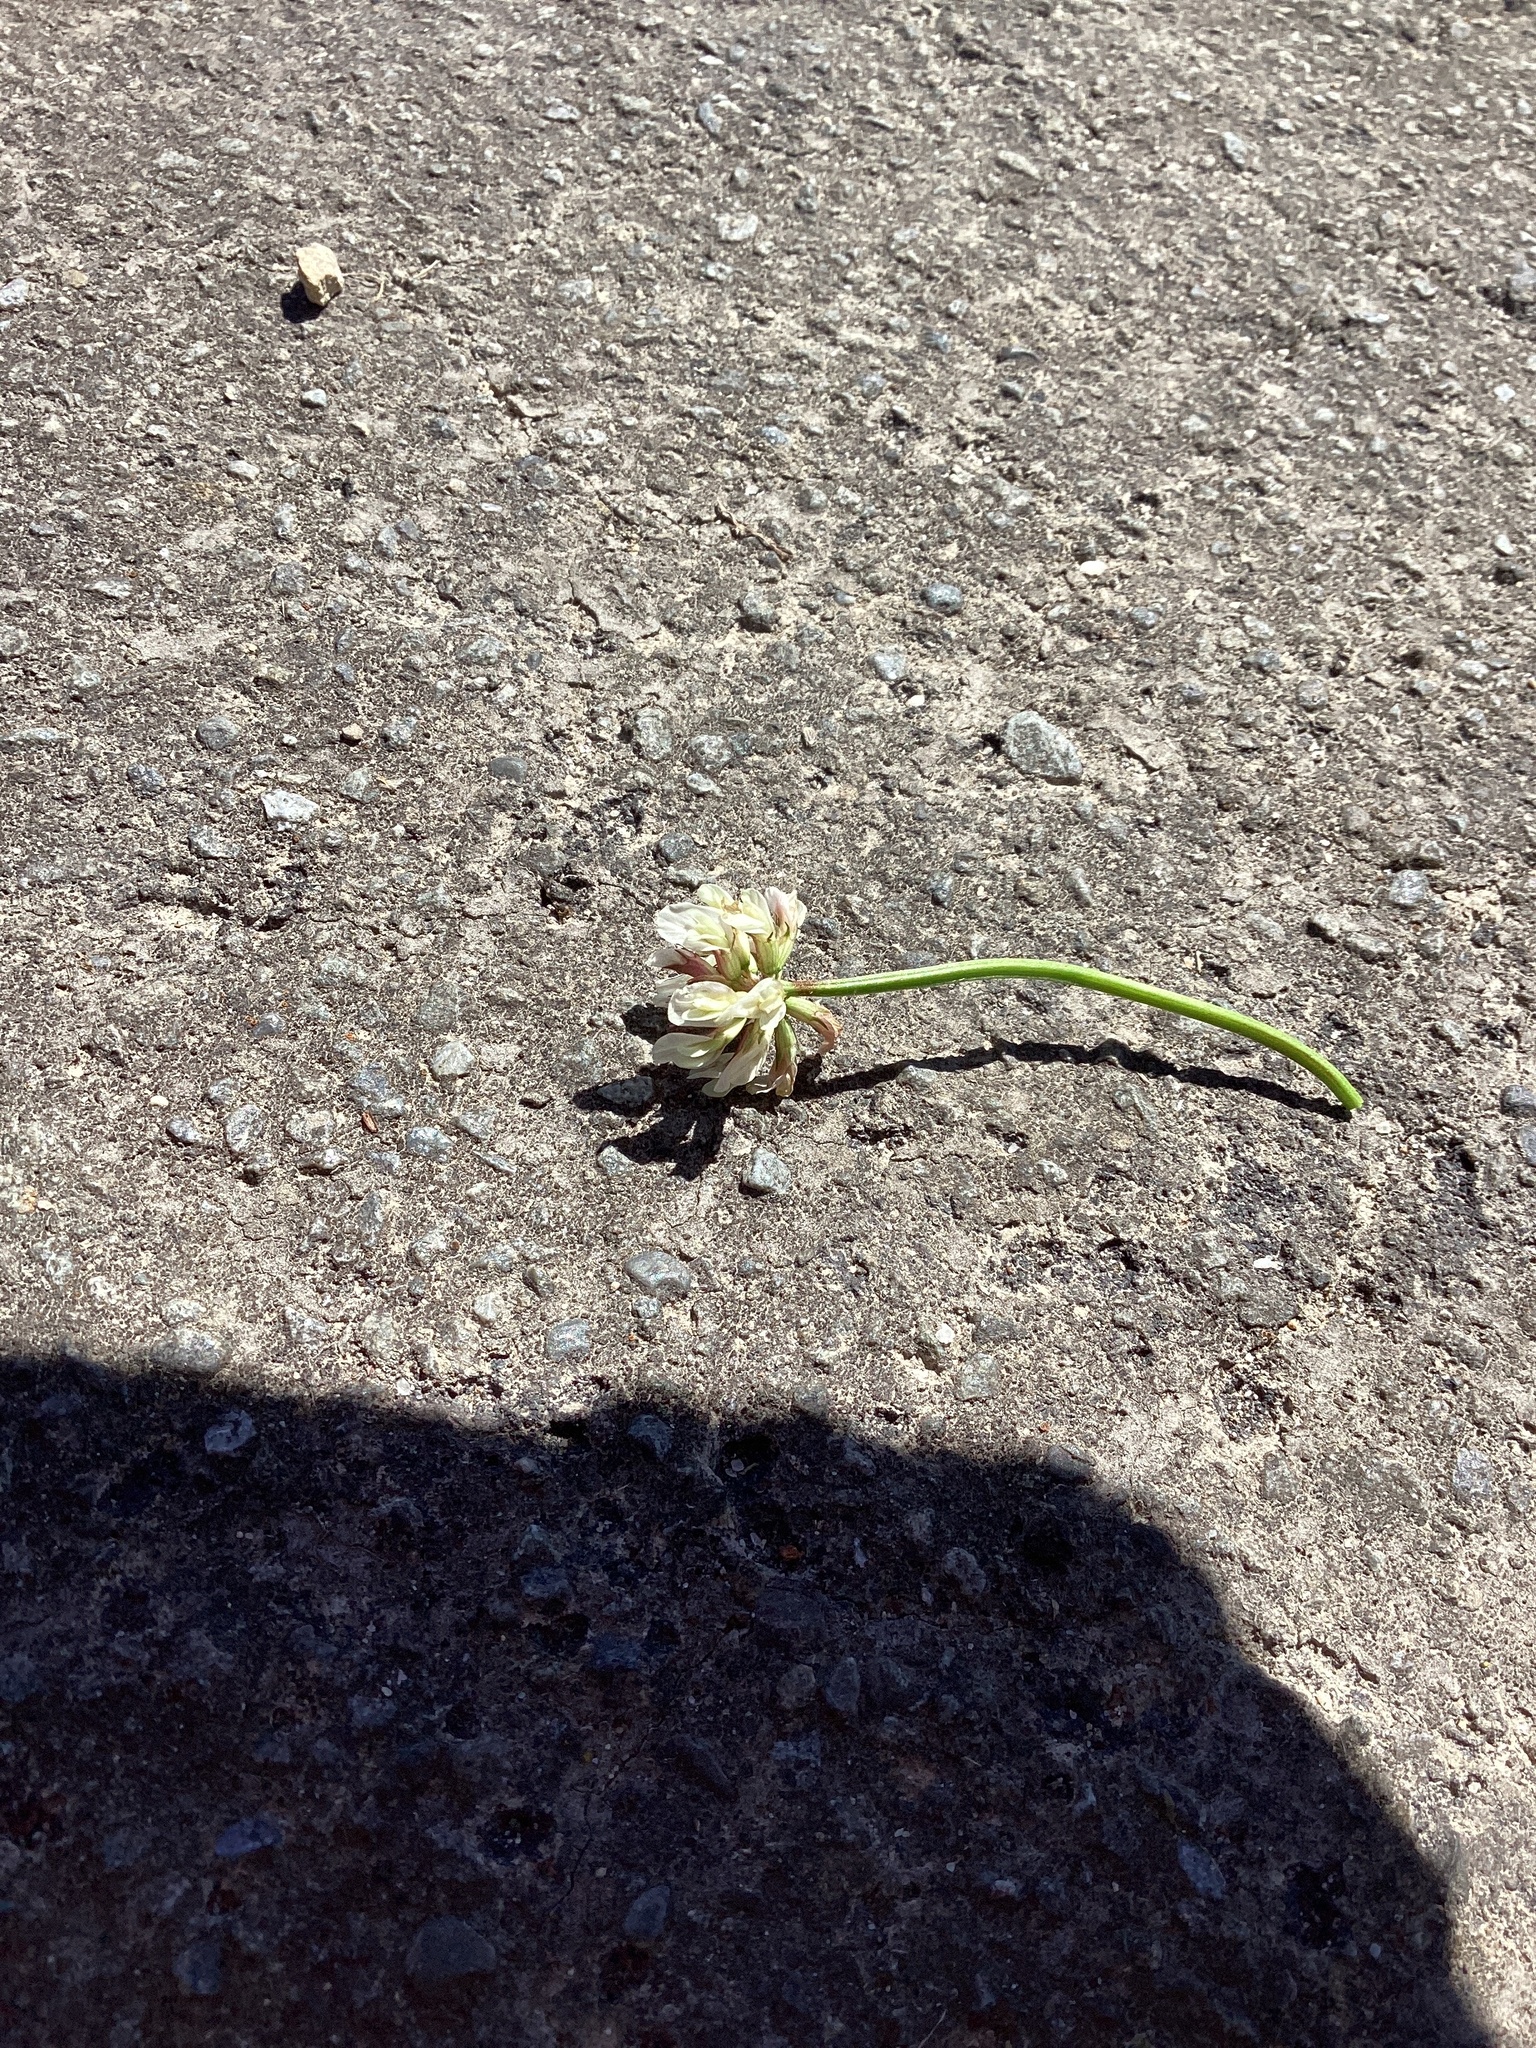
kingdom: Plantae
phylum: Tracheophyta
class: Magnoliopsida
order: Fabales
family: Fabaceae
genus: Trifolium
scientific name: Trifolium repens
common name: White clover
